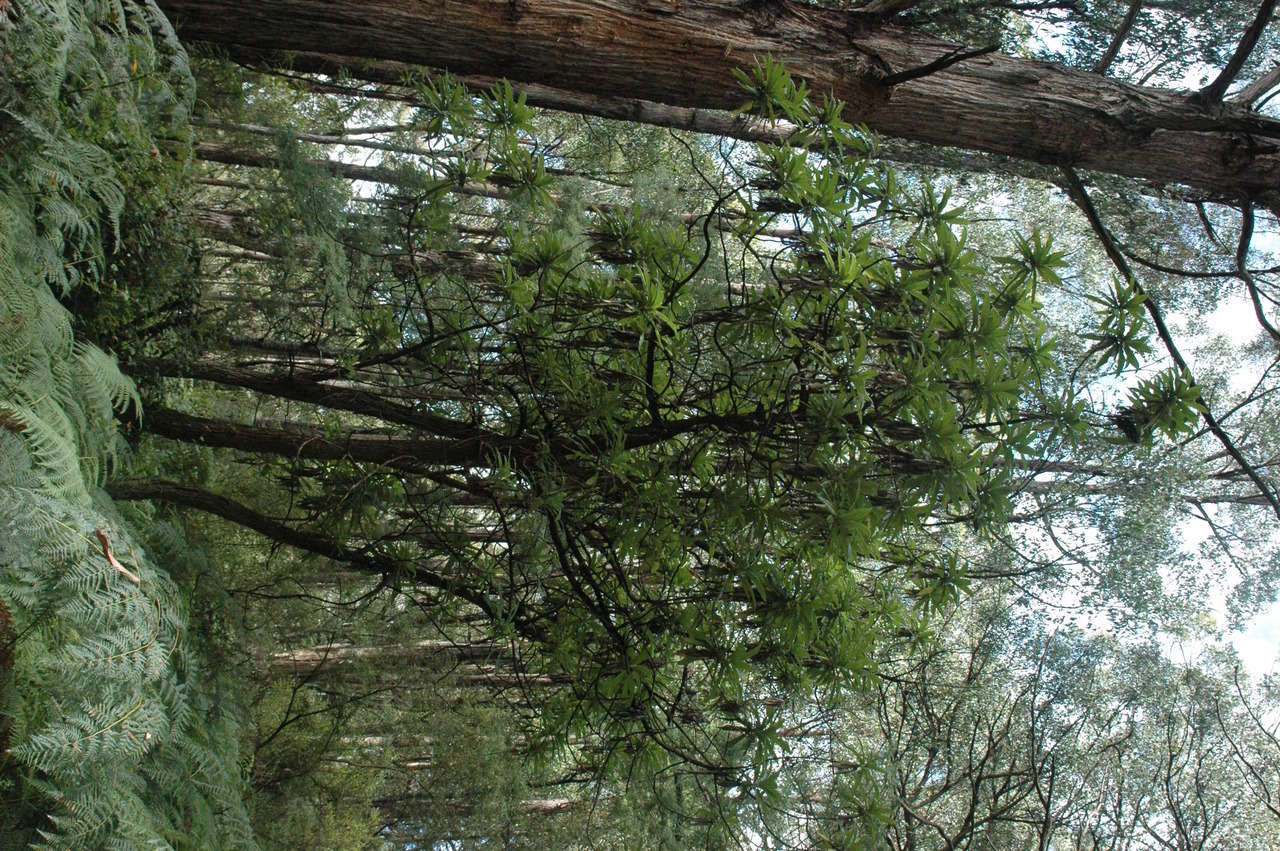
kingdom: Plantae
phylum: Tracheophyta
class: Magnoliopsida
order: Asterales
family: Asteraceae
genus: Bedfordia
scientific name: Bedfordia arborescens
